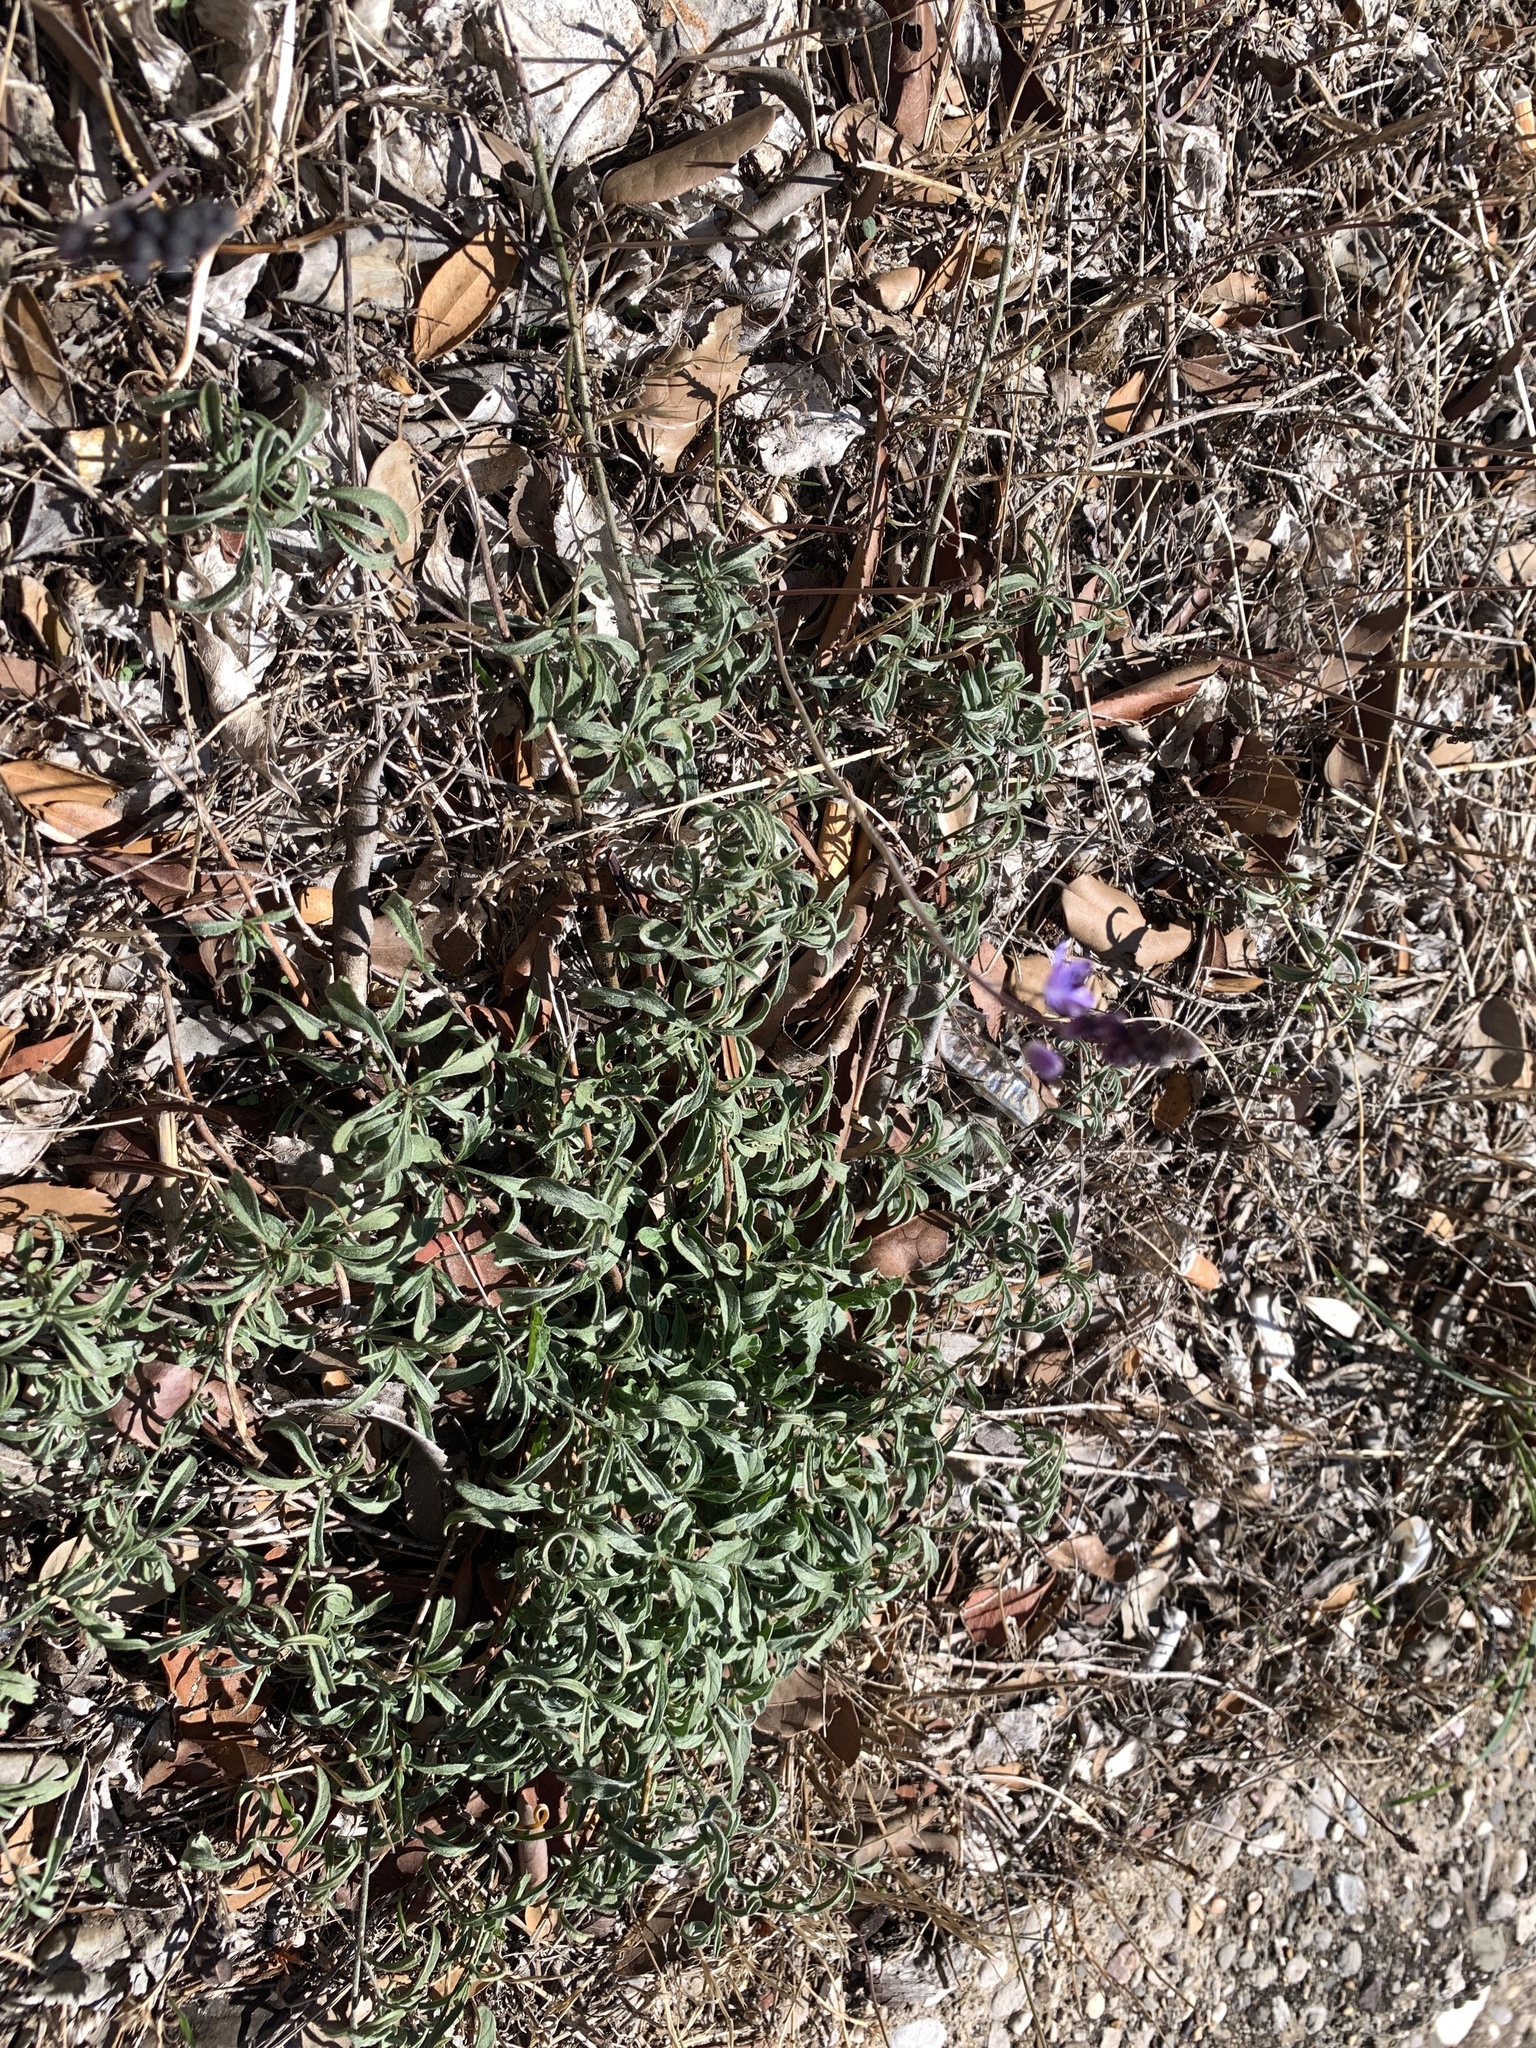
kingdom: Plantae
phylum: Tracheophyta
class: Liliopsida
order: Asparagales
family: Asparagaceae
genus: Prospero
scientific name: Prospero autumnale
